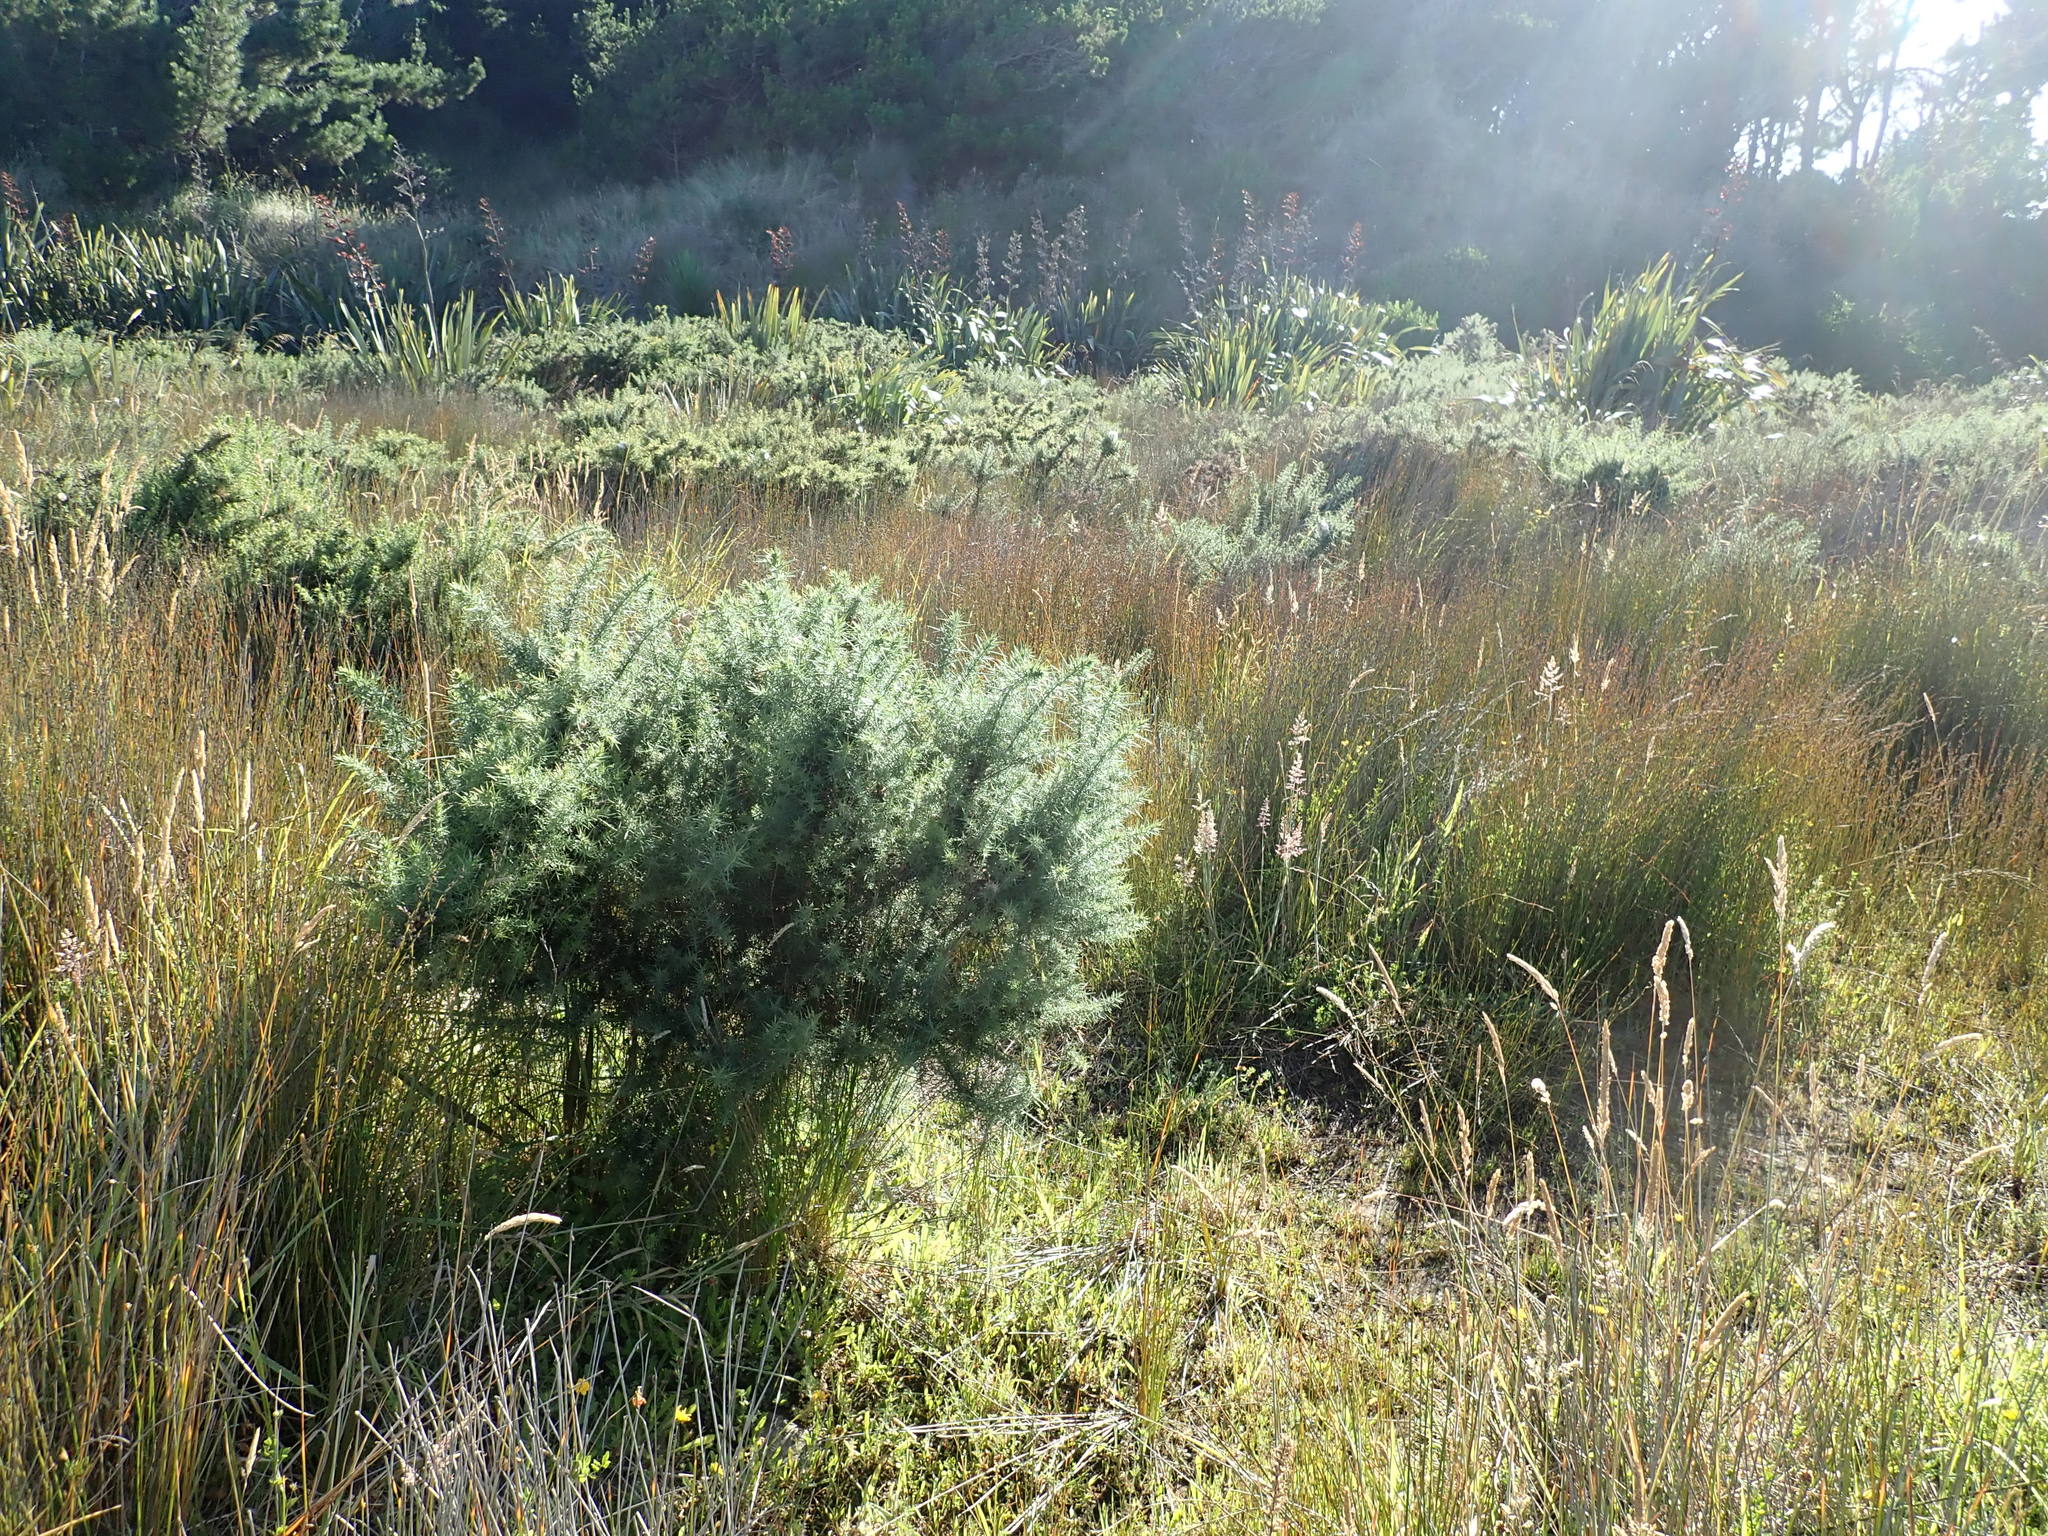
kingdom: Plantae
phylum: Tracheophyta
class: Magnoliopsida
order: Fabales
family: Fabaceae
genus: Ulex
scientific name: Ulex europaeus
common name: Common gorse
